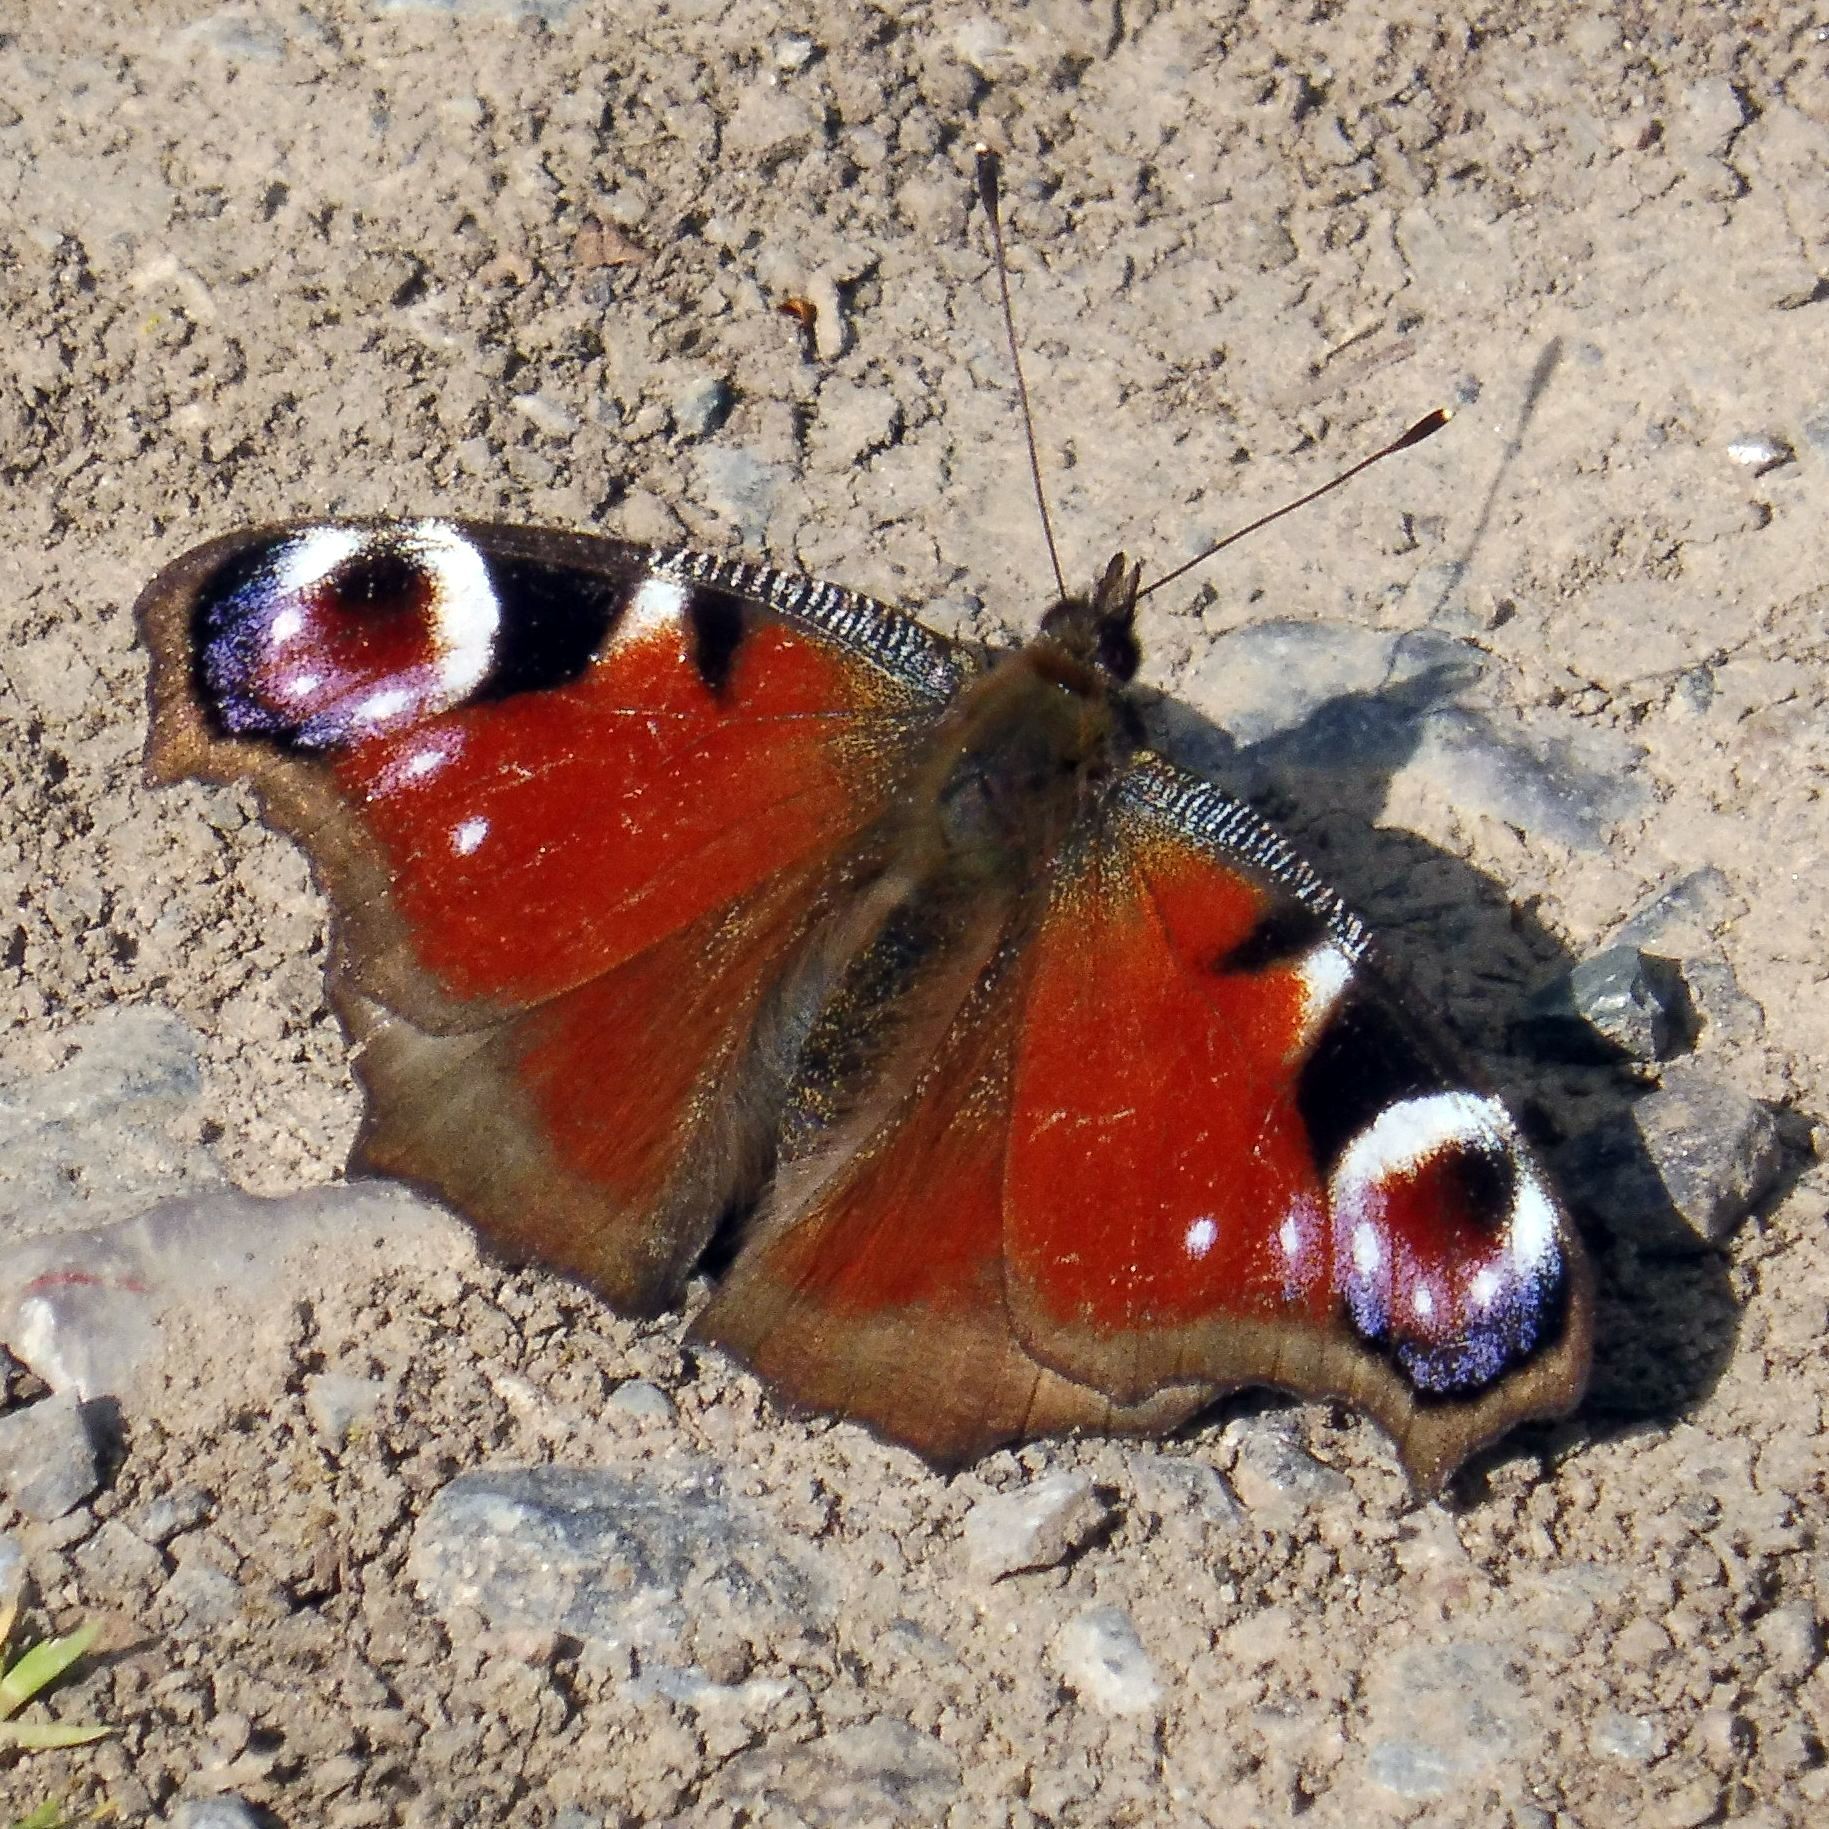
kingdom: Animalia
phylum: Arthropoda
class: Insecta
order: Lepidoptera
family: Nymphalidae
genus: Aglais
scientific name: Aglais io
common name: Peacock
